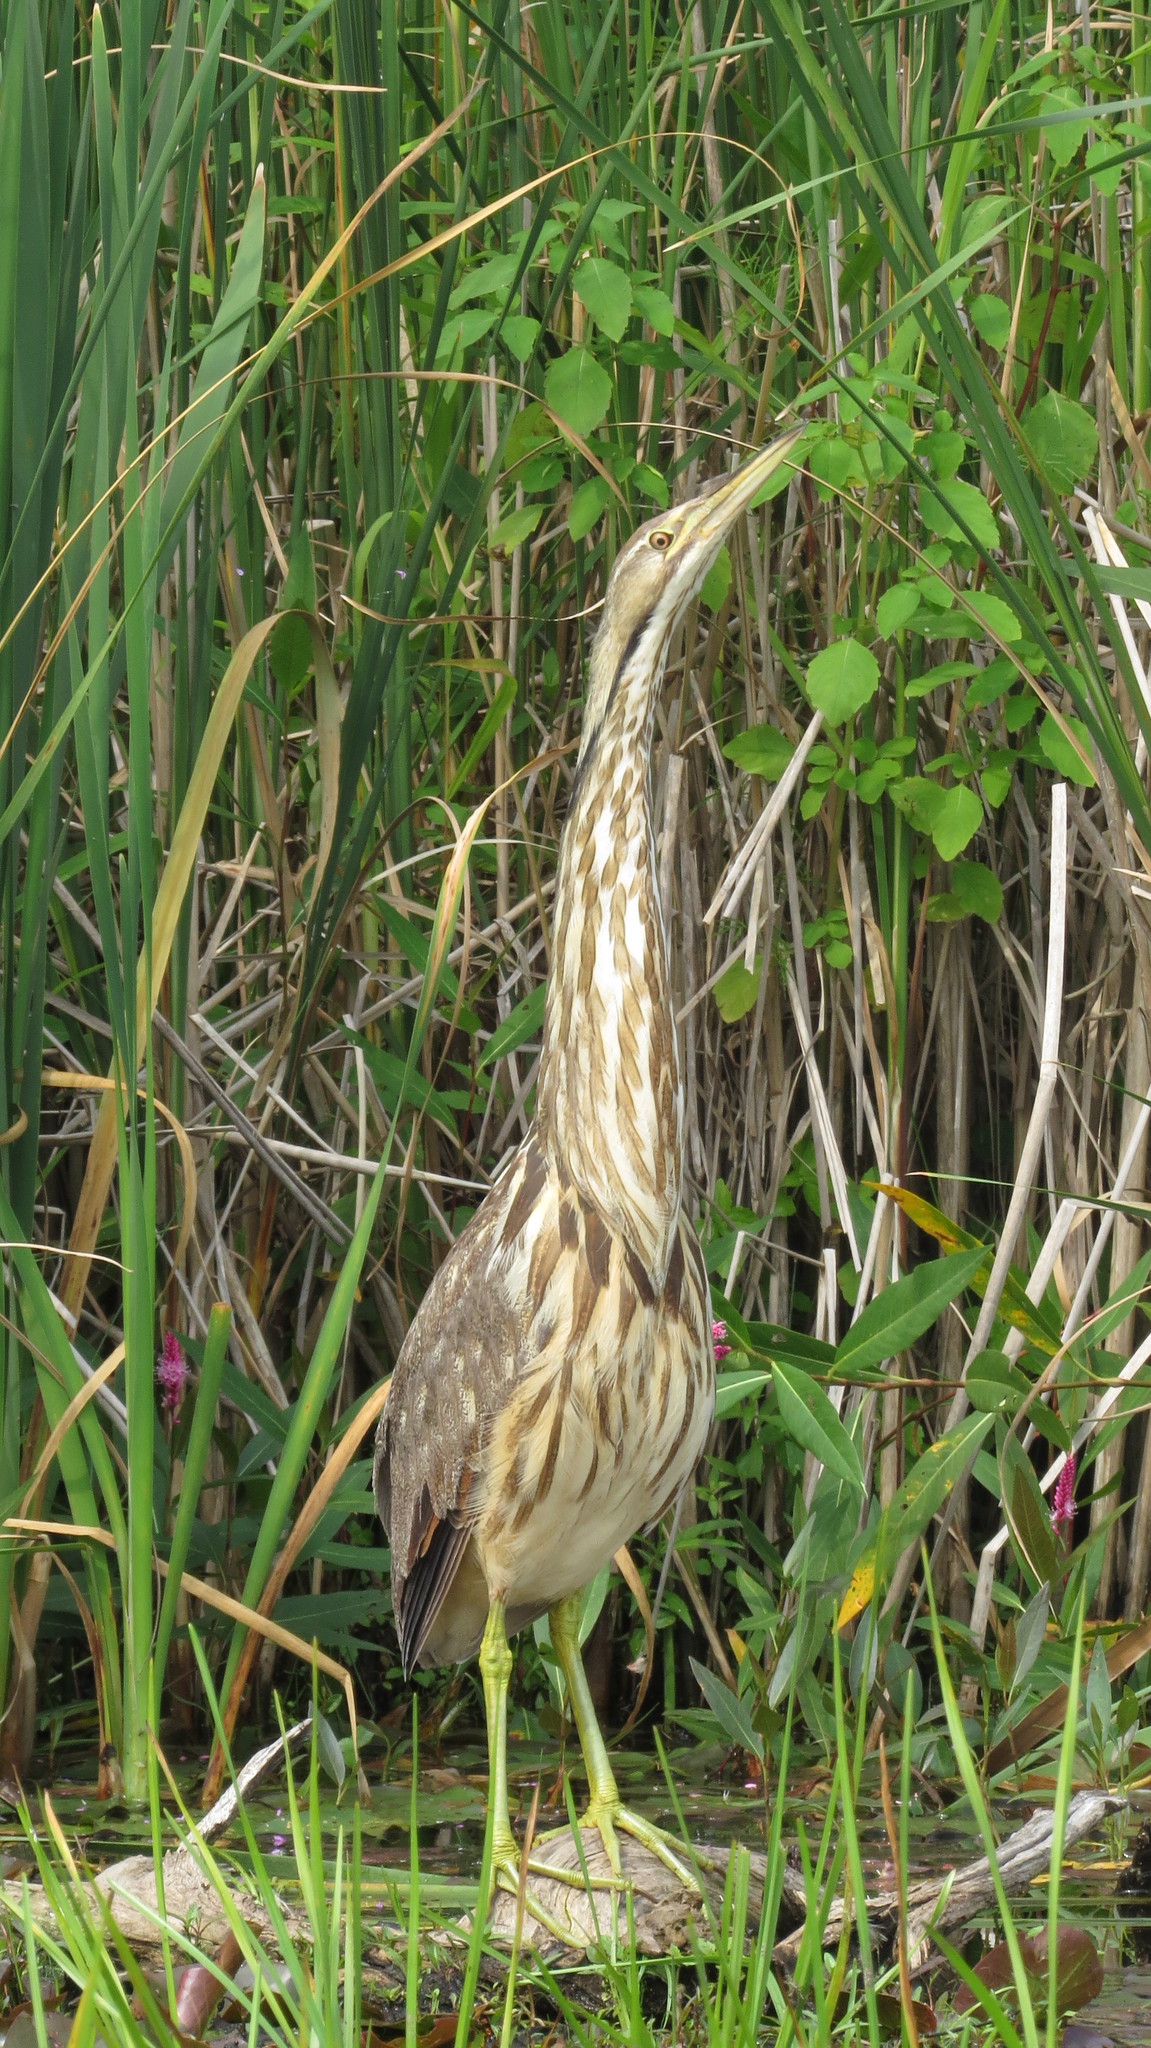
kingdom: Animalia
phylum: Chordata
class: Aves
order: Pelecaniformes
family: Ardeidae
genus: Botaurus
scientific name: Botaurus lentiginosus
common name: American bittern
